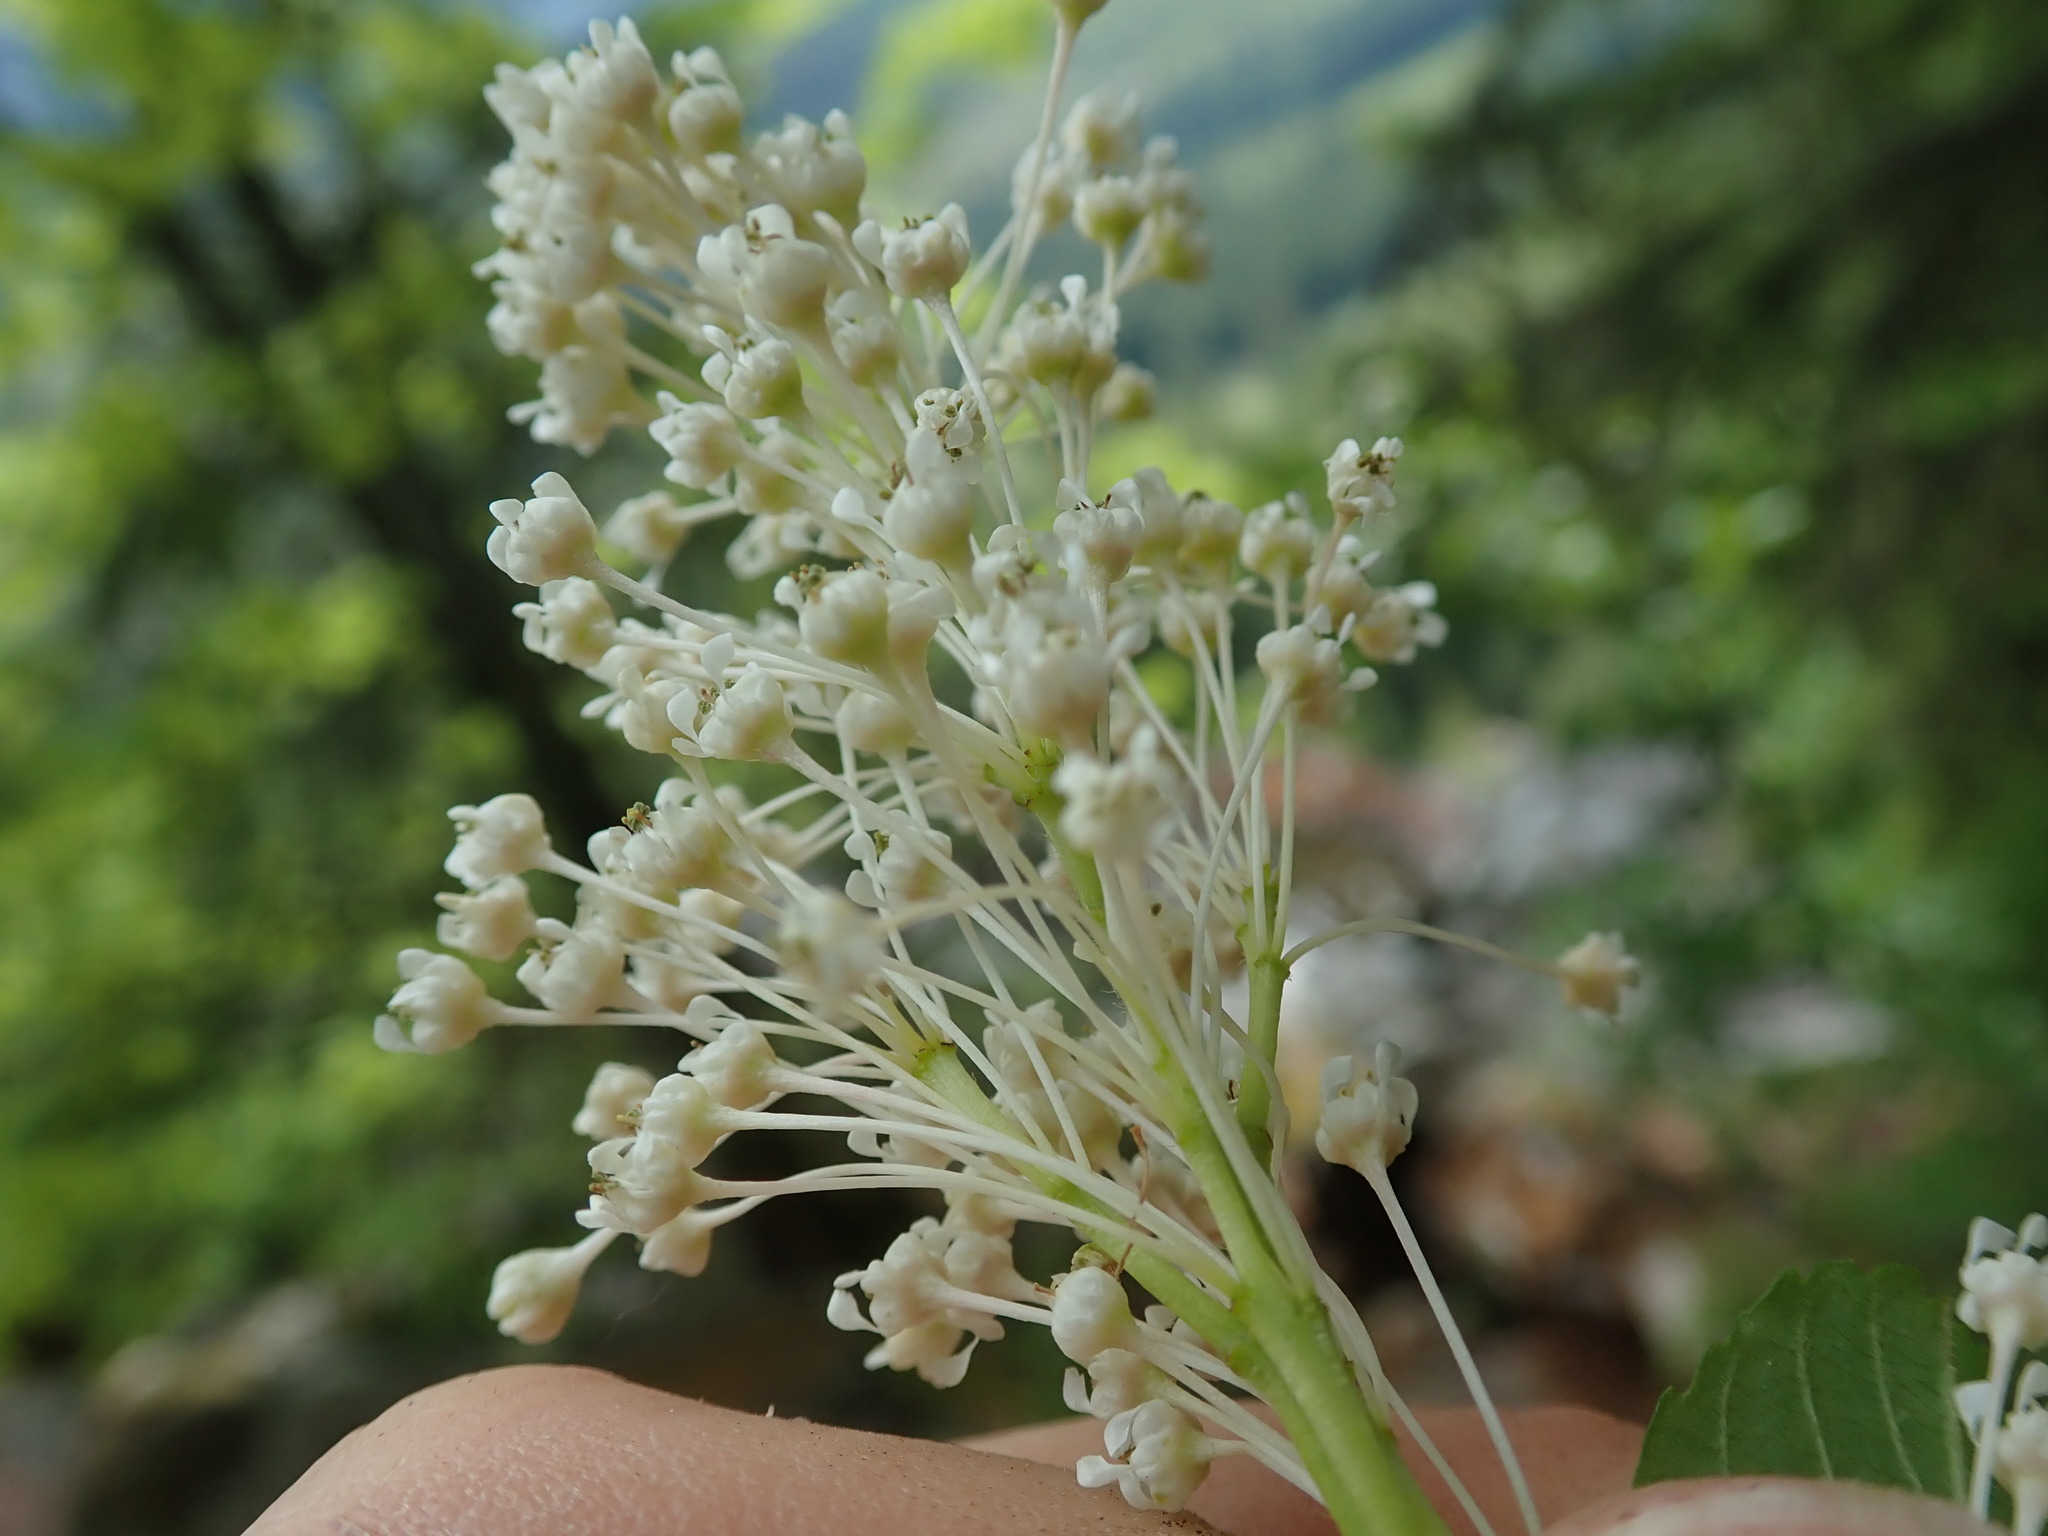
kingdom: Plantae
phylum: Tracheophyta
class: Magnoliopsida
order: Rosales
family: Rhamnaceae
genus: Ceanothus
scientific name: Ceanothus sanguineus
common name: Teatree
